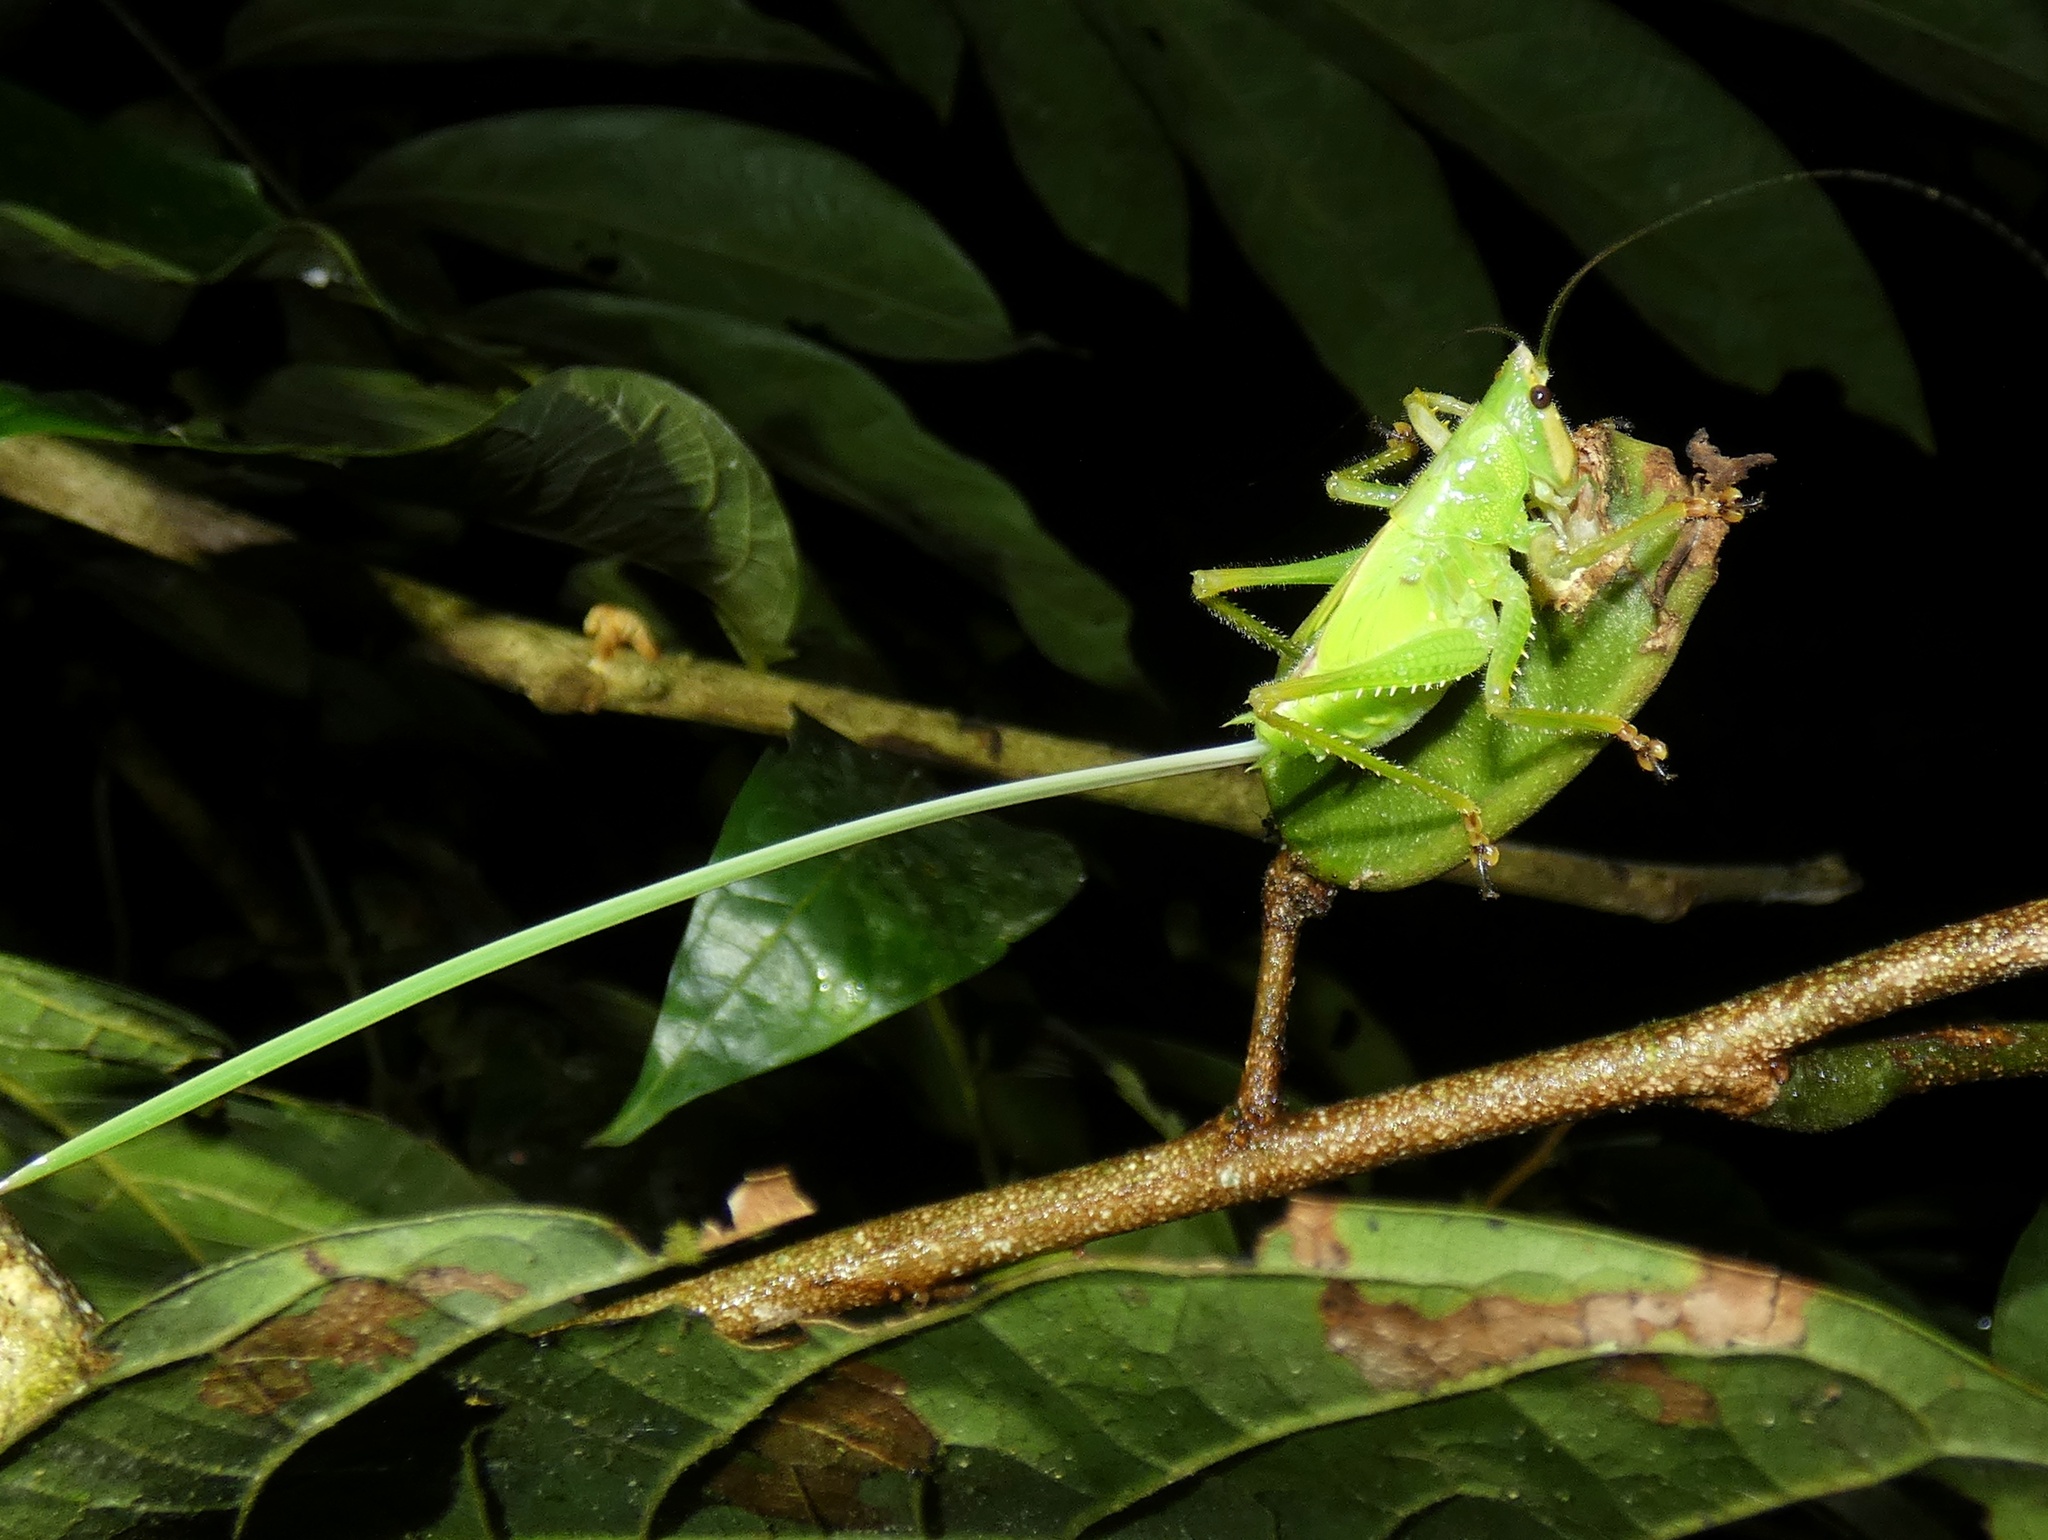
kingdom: Animalia
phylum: Arthropoda
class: Insecta
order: Orthoptera
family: Tettigoniidae
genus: Copiphora
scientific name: Copiphora brevirostris
